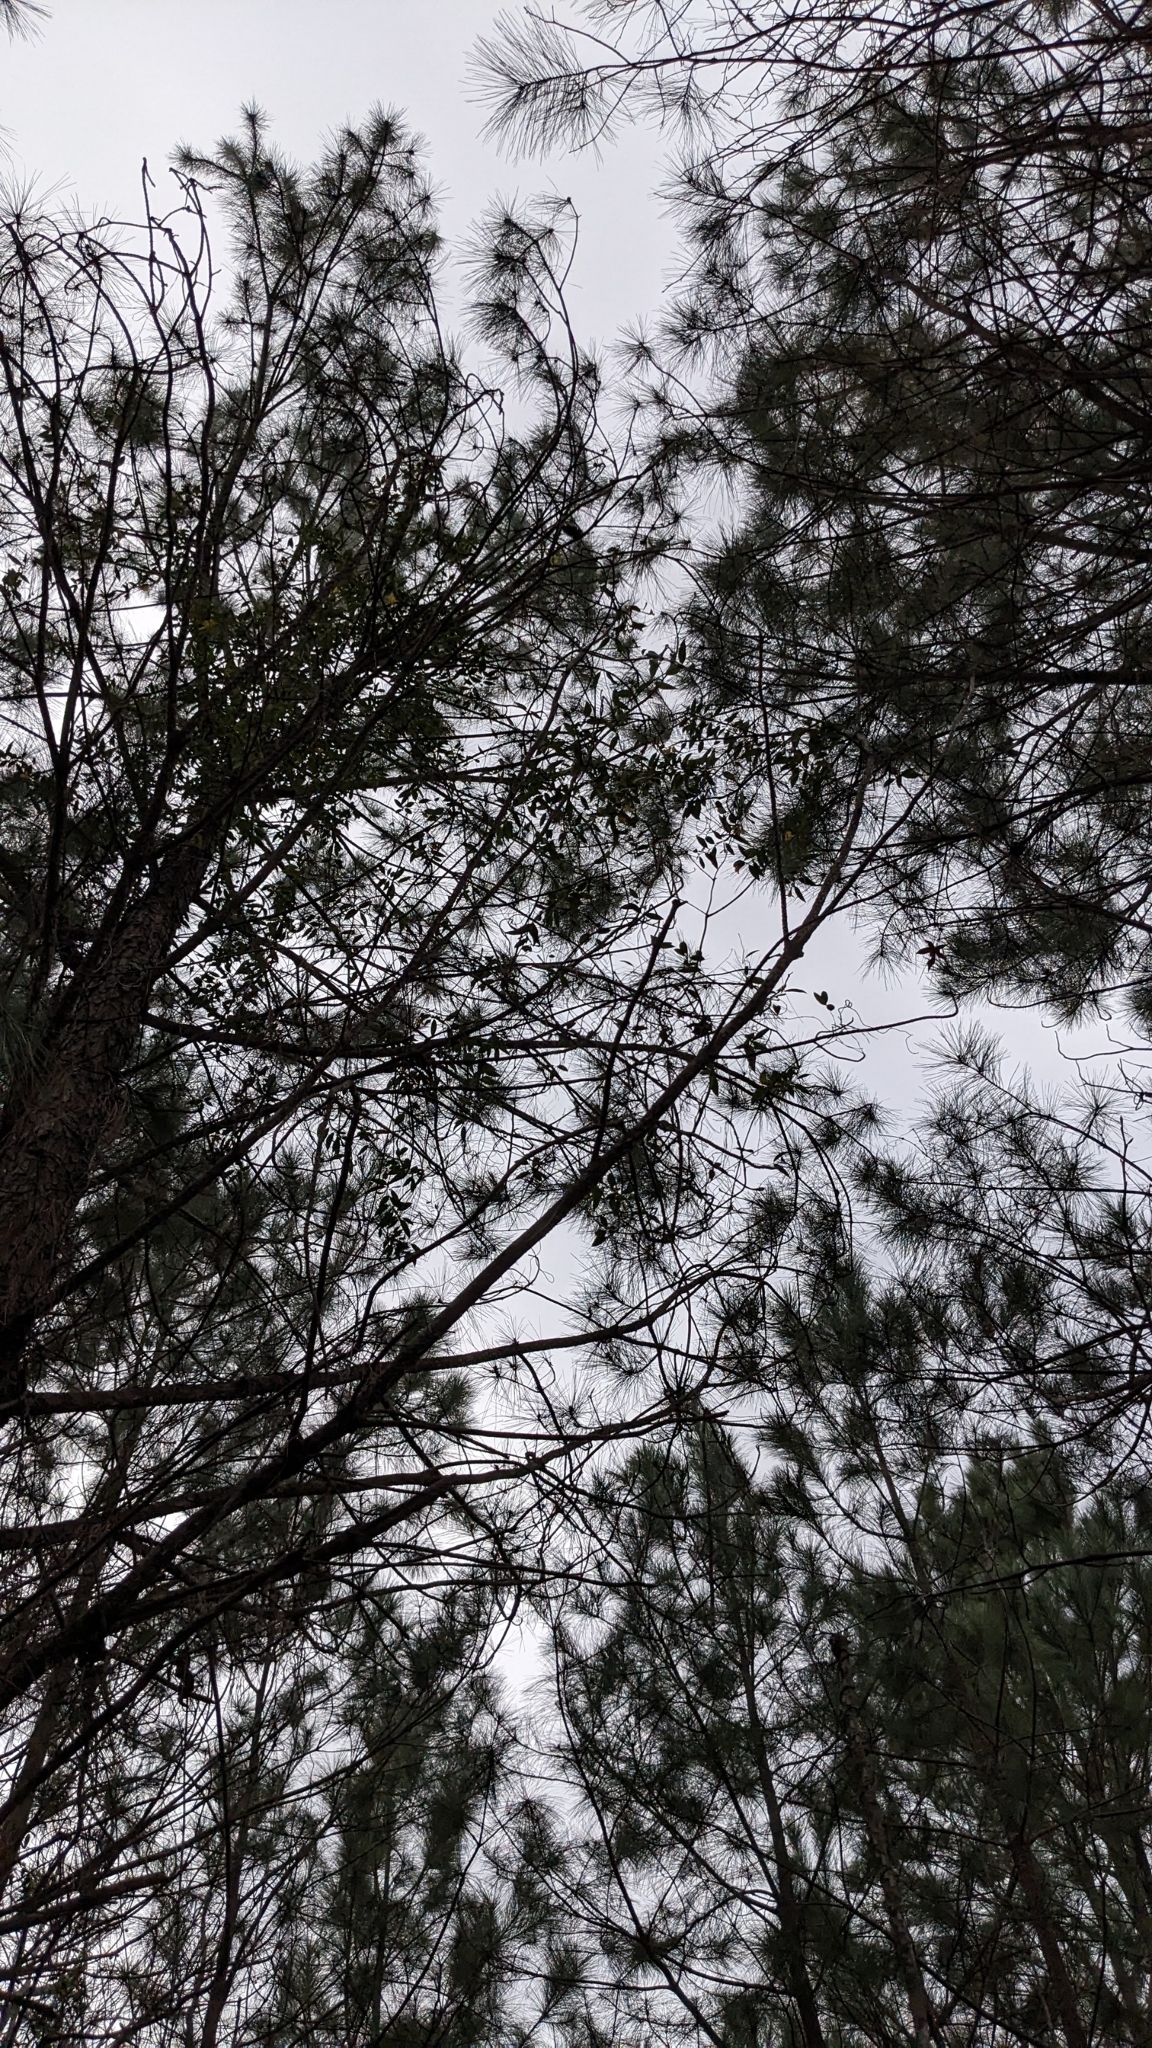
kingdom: Plantae
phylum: Tracheophyta
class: Magnoliopsida
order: Gentianales
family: Gelsemiaceae
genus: Gelsemium
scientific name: Gelsemium sempervirens
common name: Carolina-jasmine
